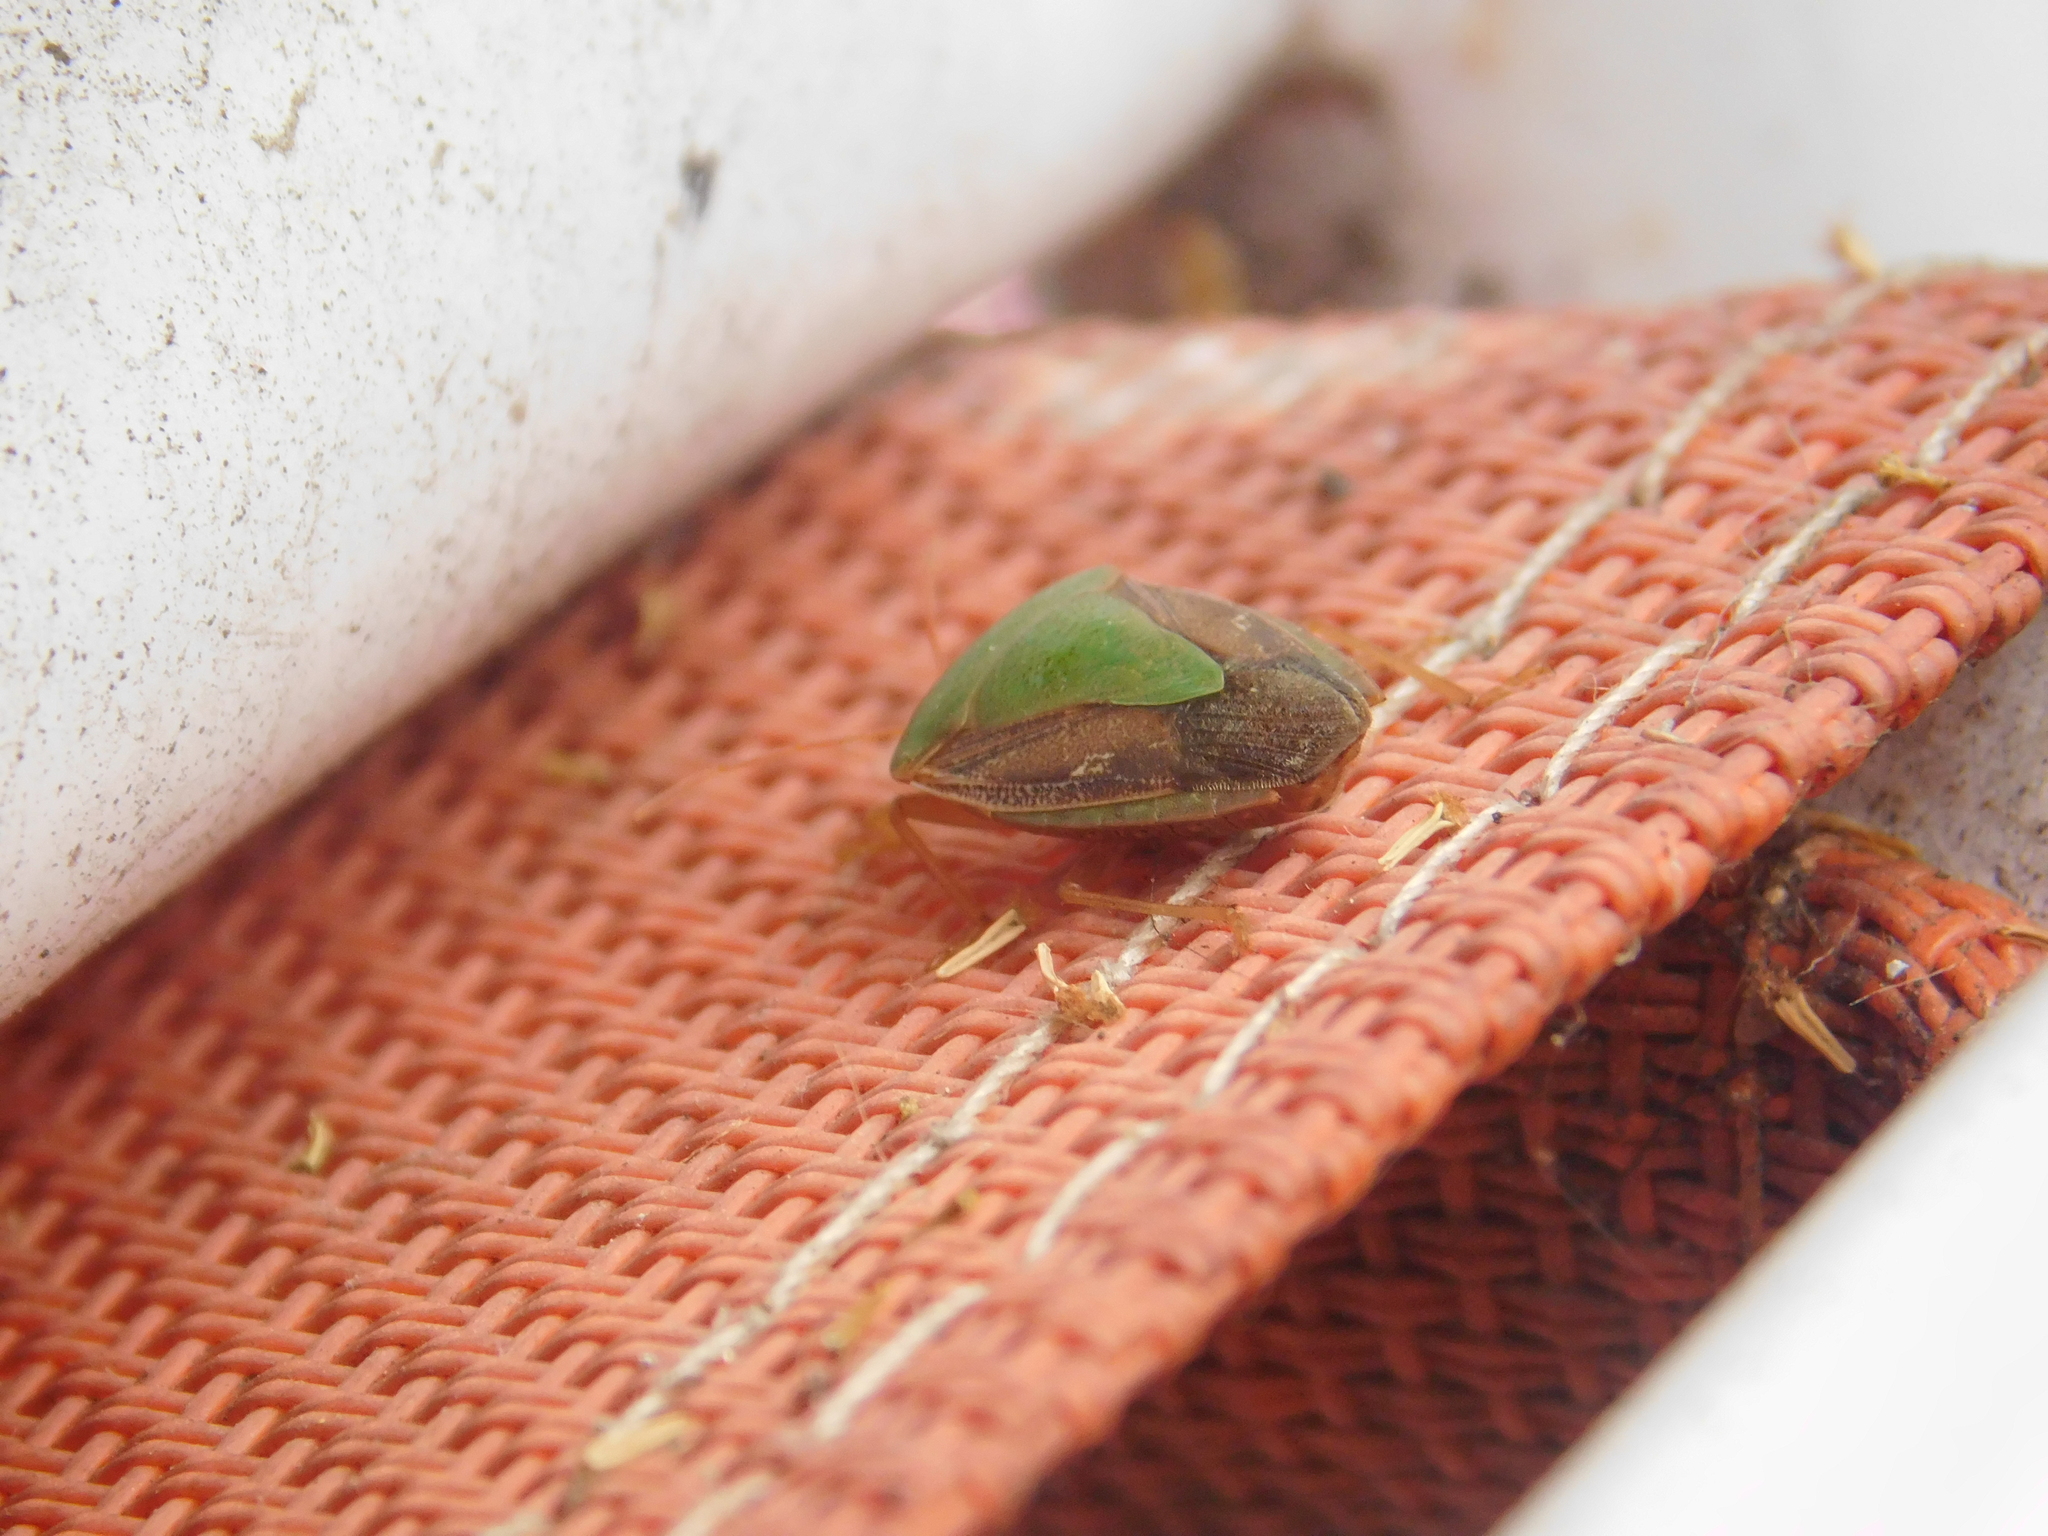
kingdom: Animalia
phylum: Arthropoda
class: Insecta
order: Hemiptera
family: Pentatomidae
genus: Edessa
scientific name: Edessa meditabunda
